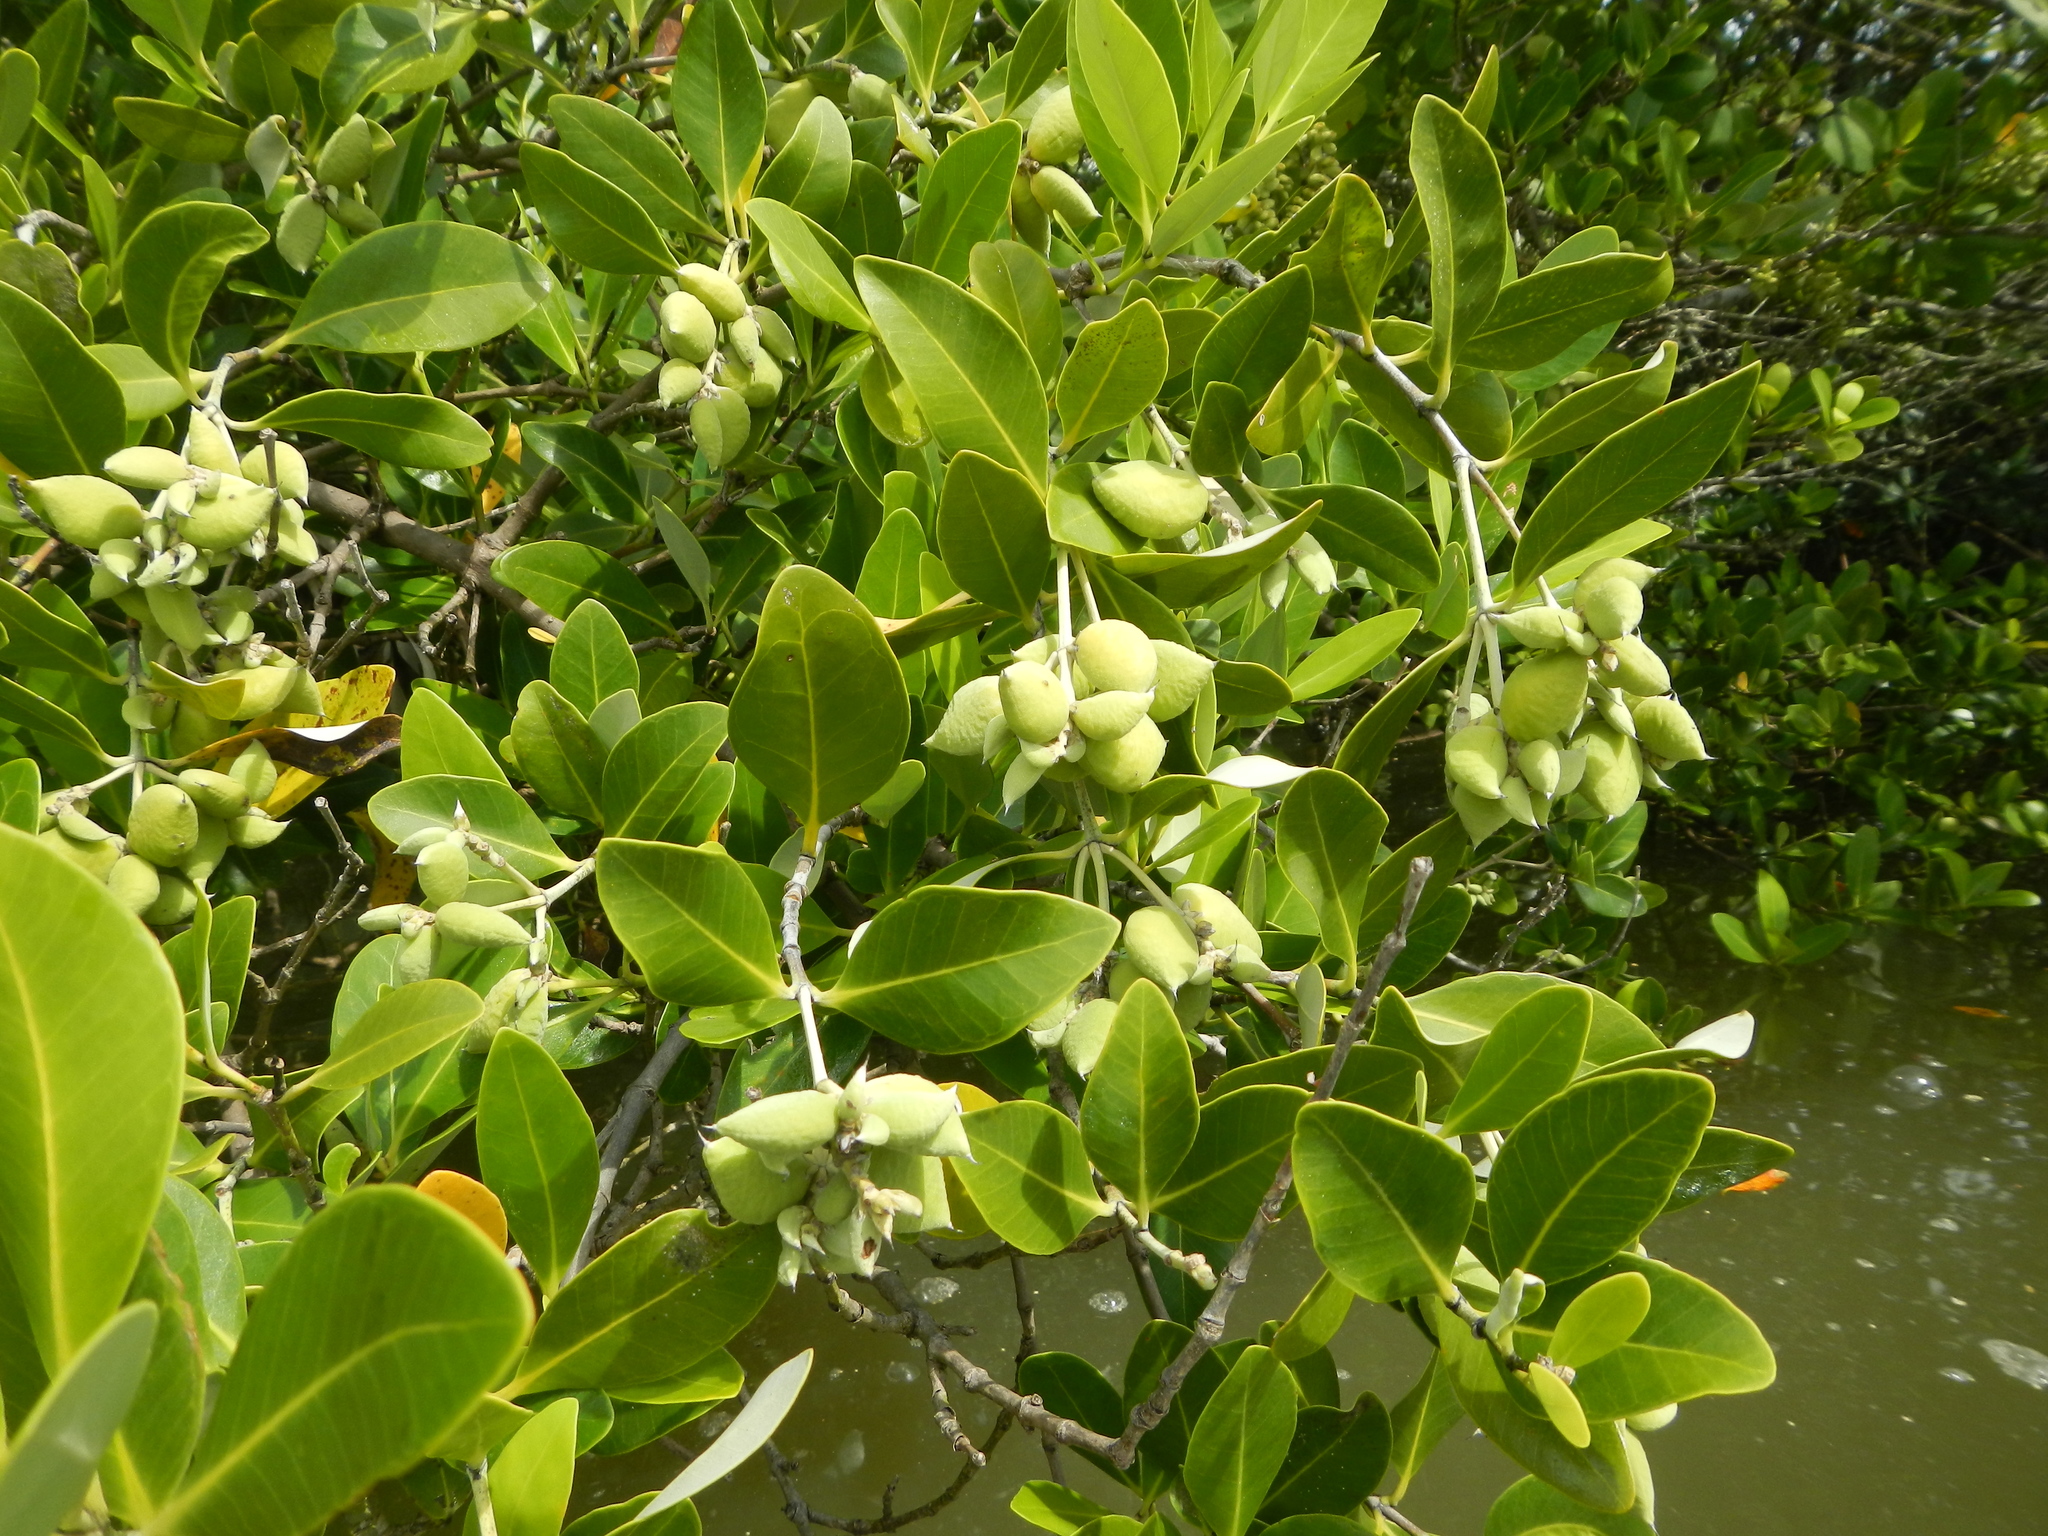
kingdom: Plantae
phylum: Tracheophyta
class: Magnoliopsida
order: Lamiales
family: Acanthaceae
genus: Avicennia
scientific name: Avicennia germinans
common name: Black mangrove
